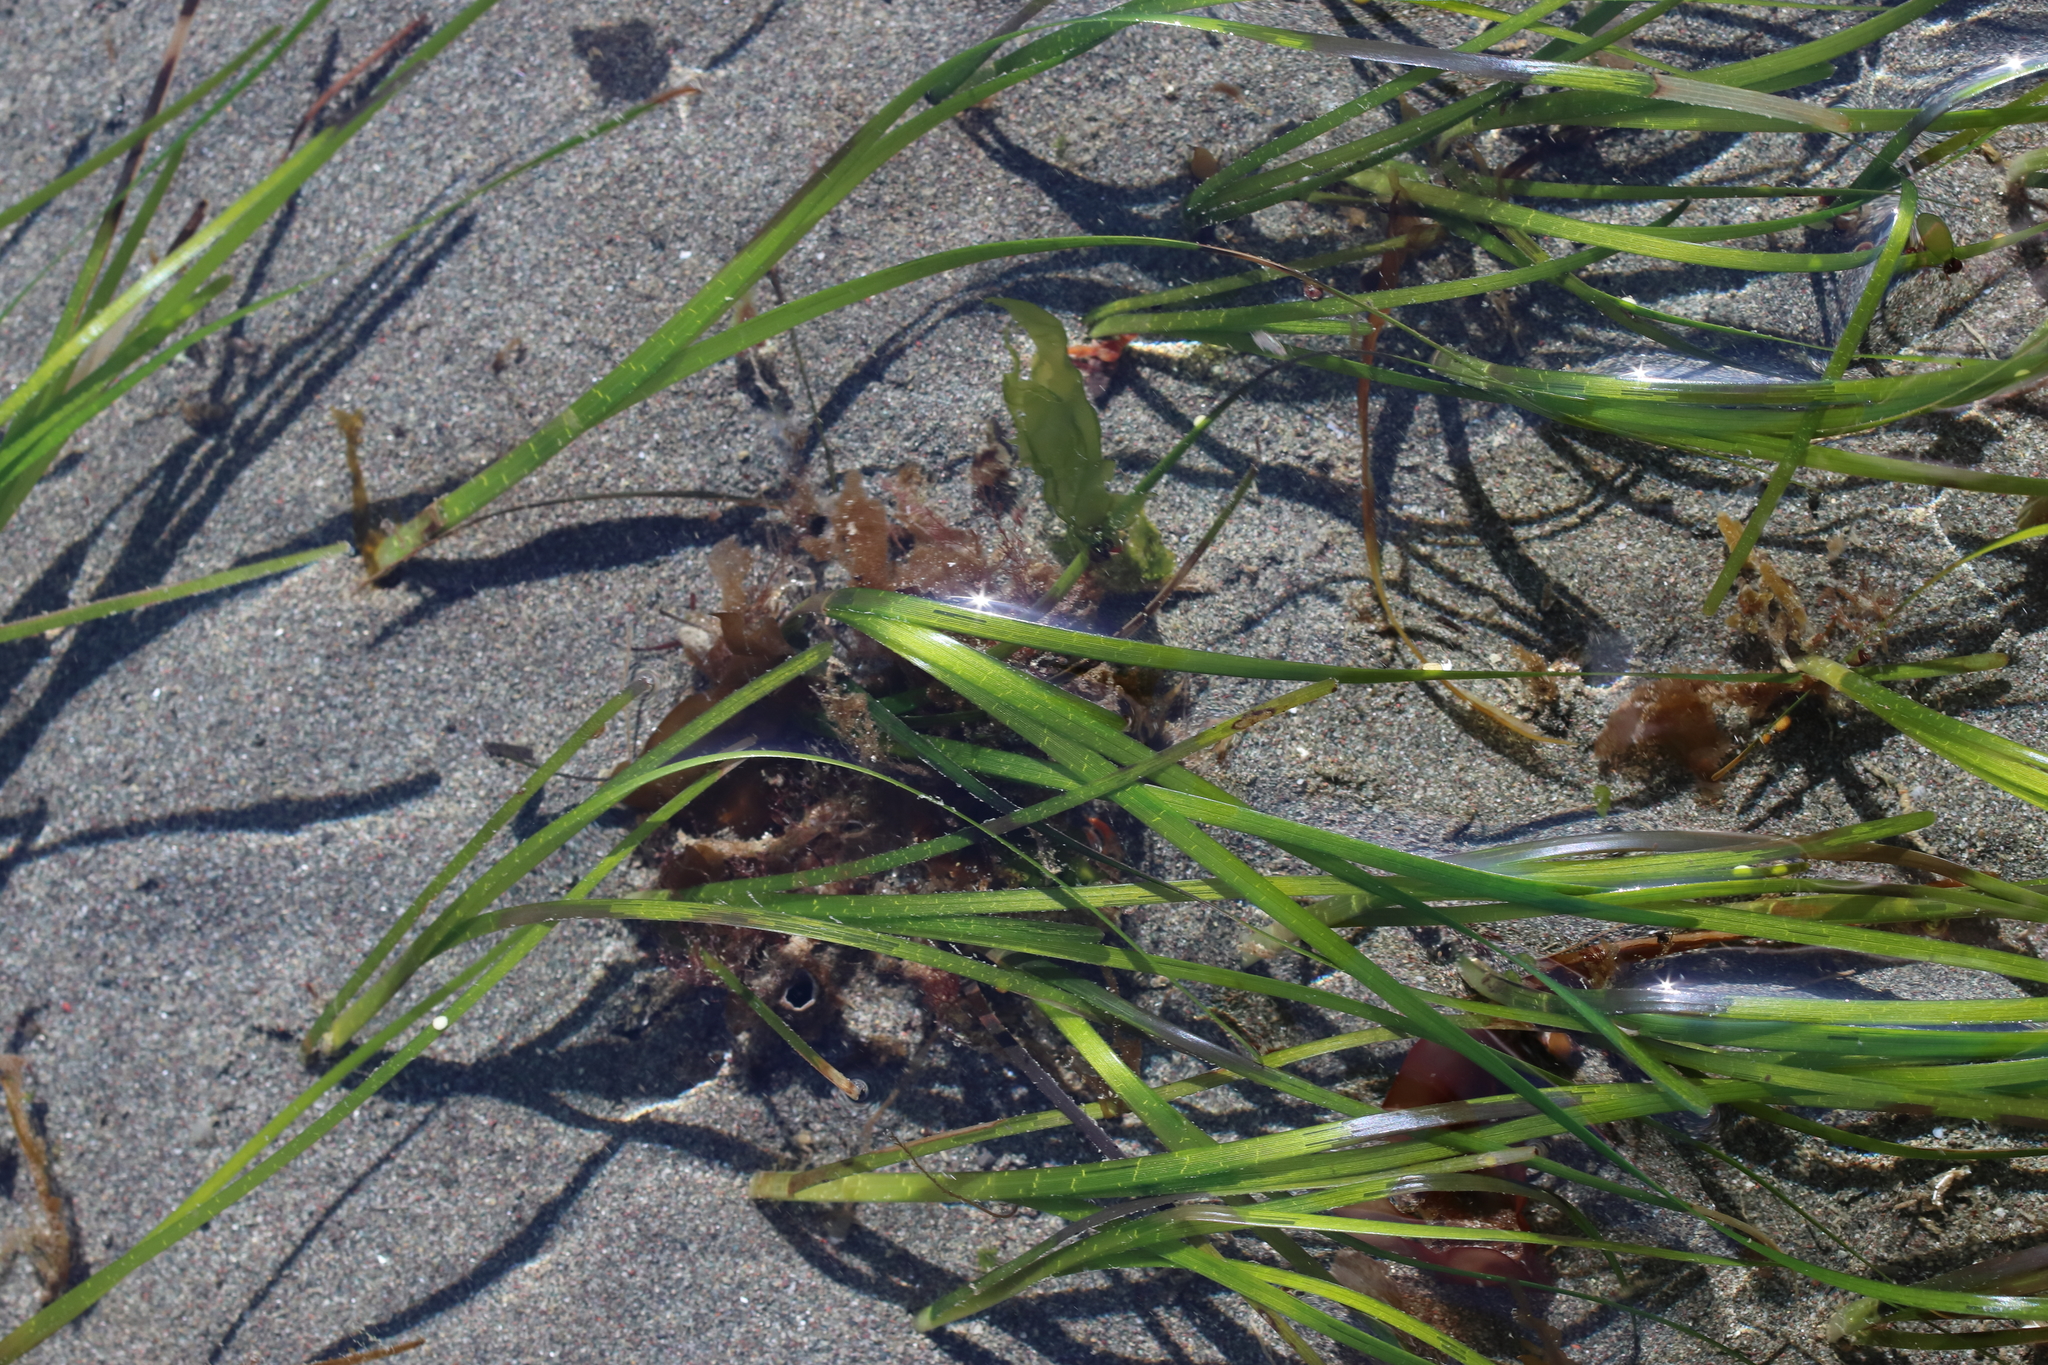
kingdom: Plantae
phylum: Tracheophyta
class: Liliopsida
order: Alismatales
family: Zosteraceae
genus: Zostera
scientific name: Zostera marina
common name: Eelgrass
